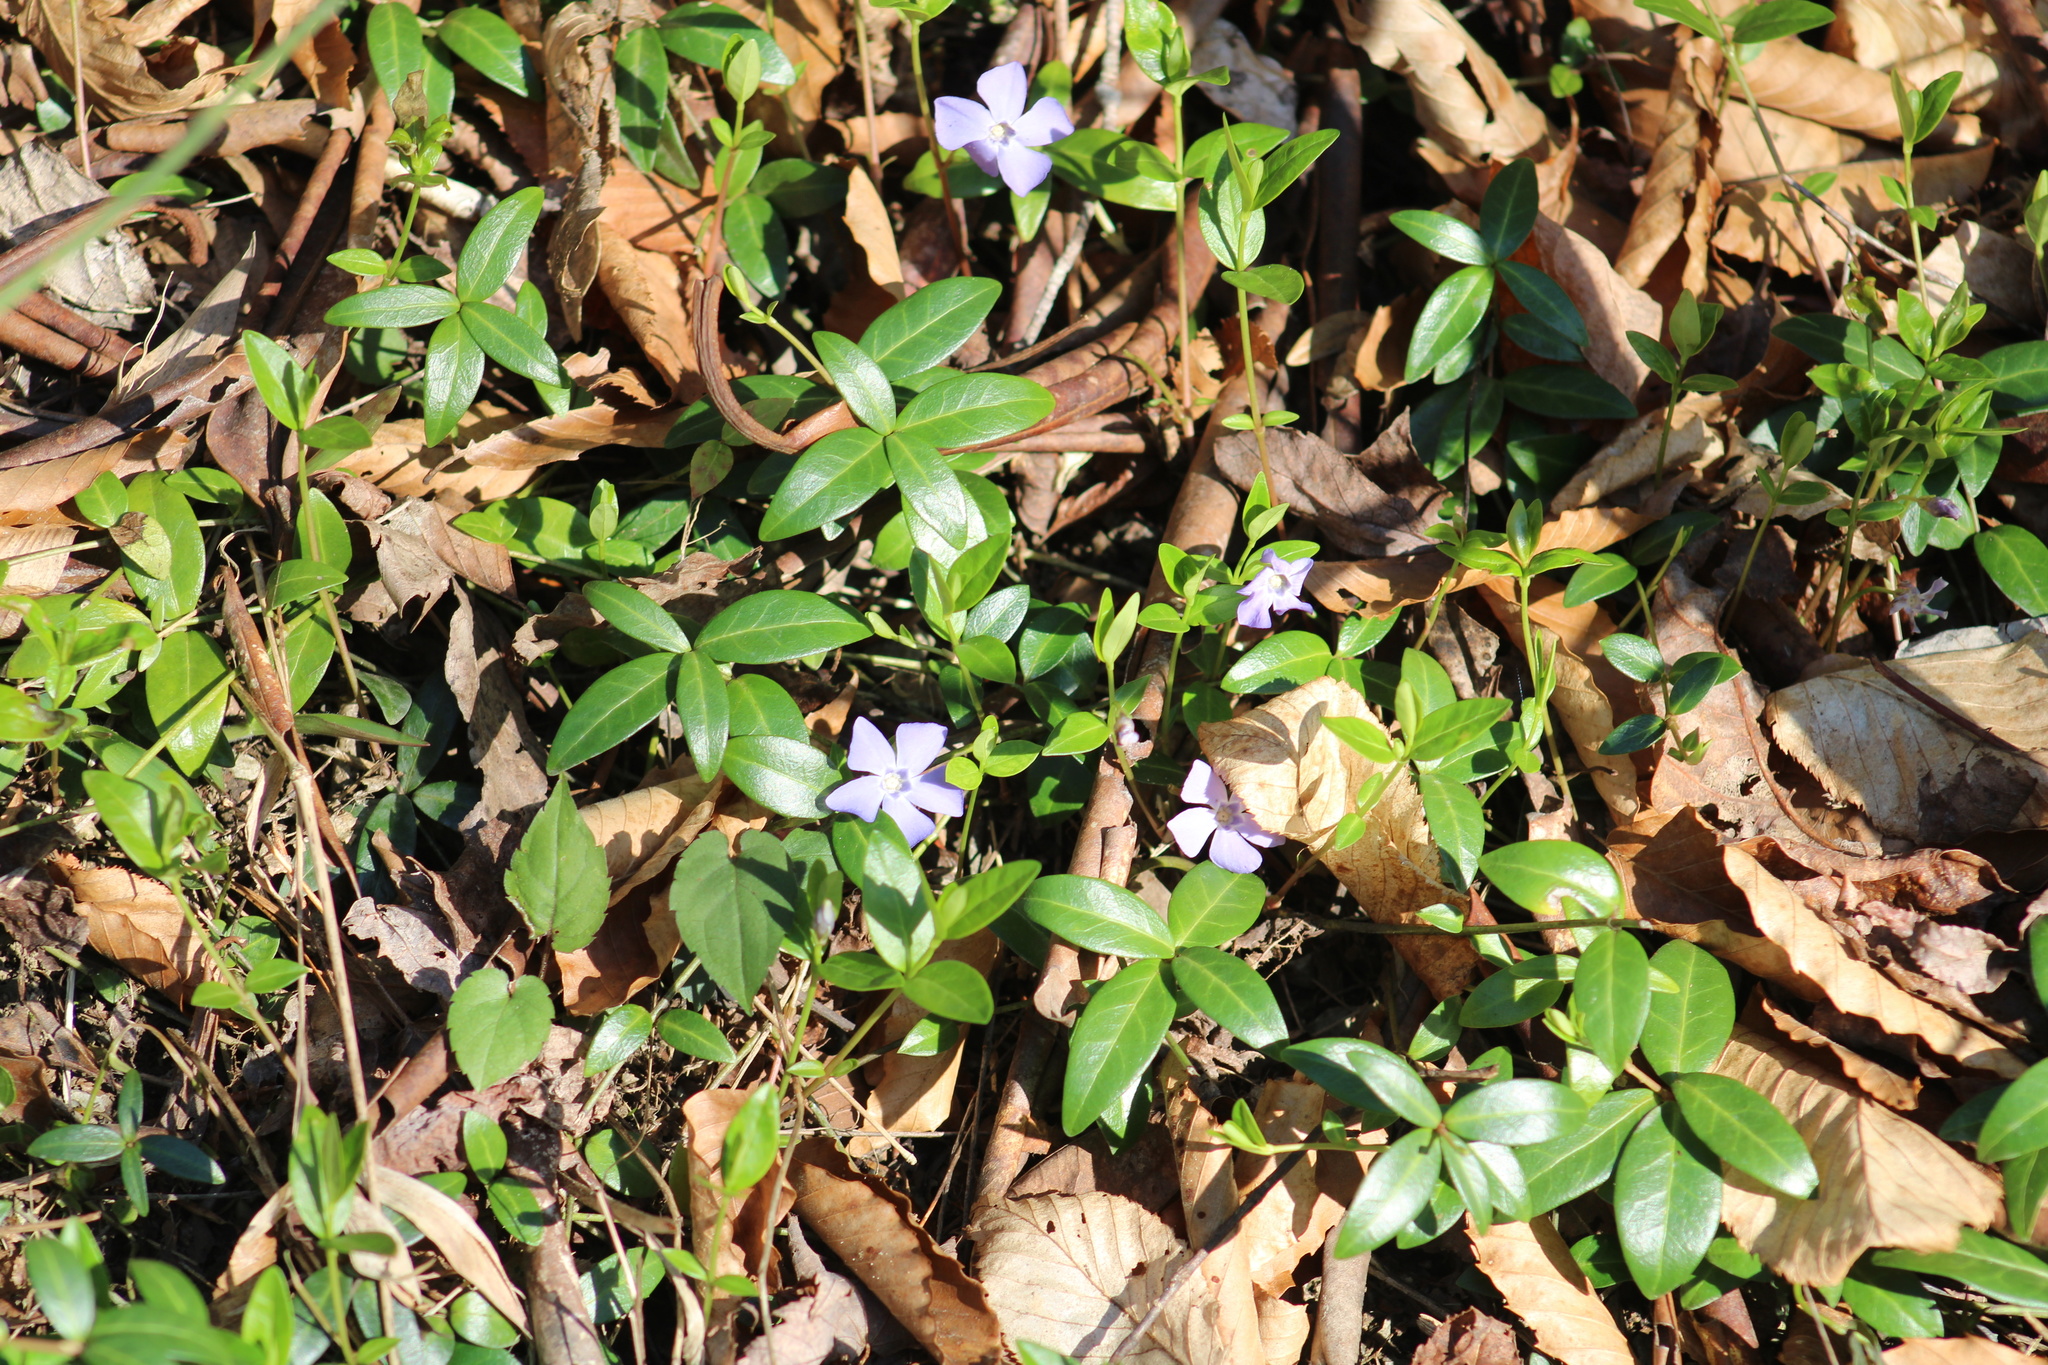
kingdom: Plantae
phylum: Tracheophyta
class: Magnoliopsida
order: Gentianales
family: Apocynaceae
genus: Vinca
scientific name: Vinca minor
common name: Lesser periwinkle
